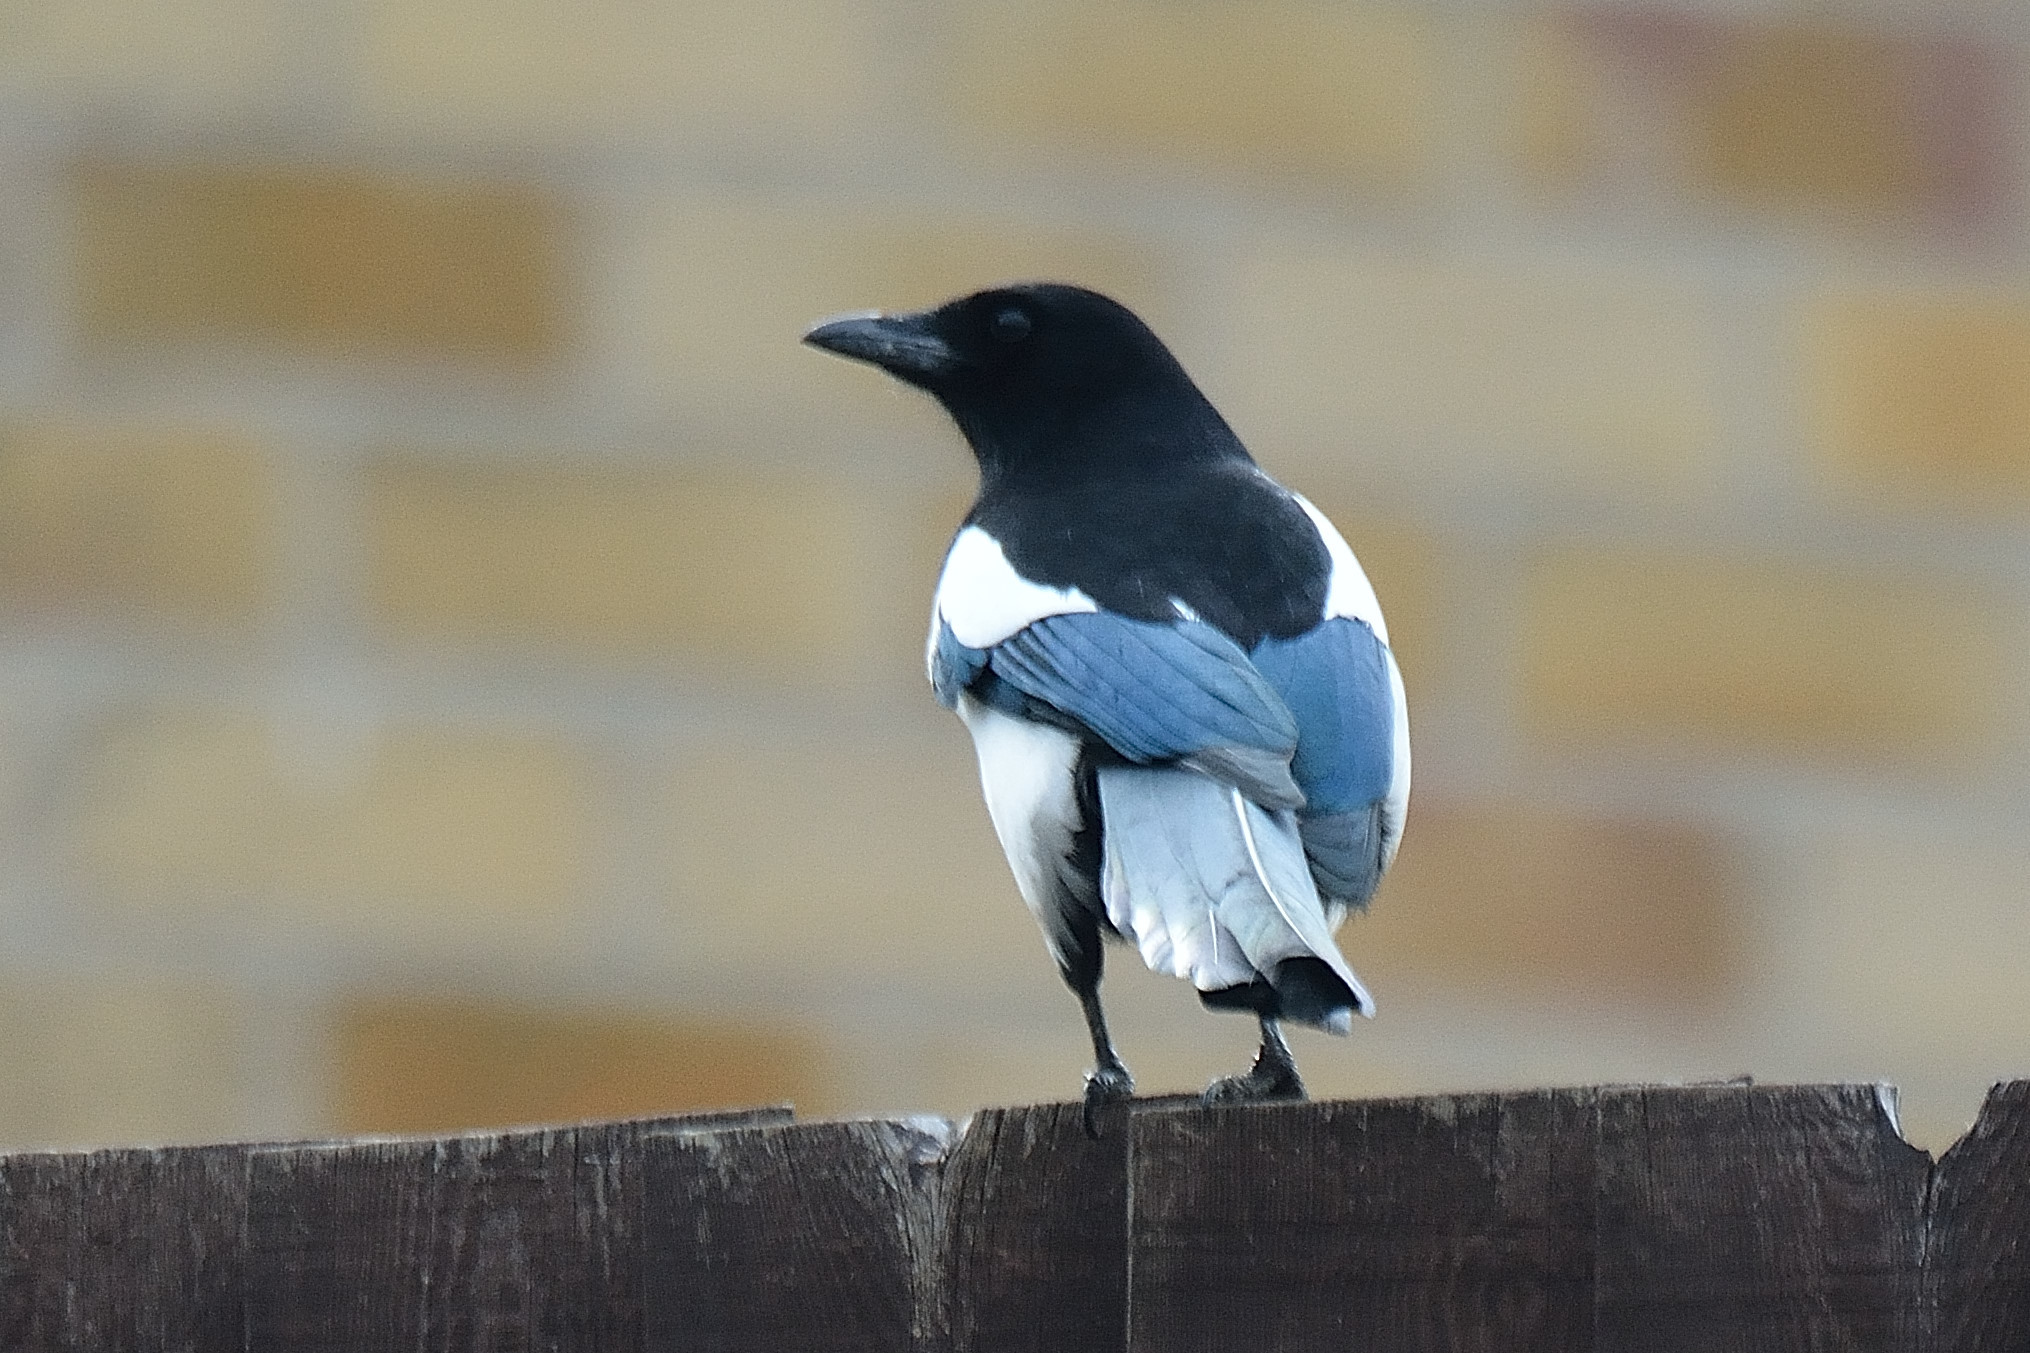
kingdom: Animalia
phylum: Chordata
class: Aves
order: Passeriformes
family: Corvidae
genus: Pica
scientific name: Pica pica
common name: Eurasian magpie
